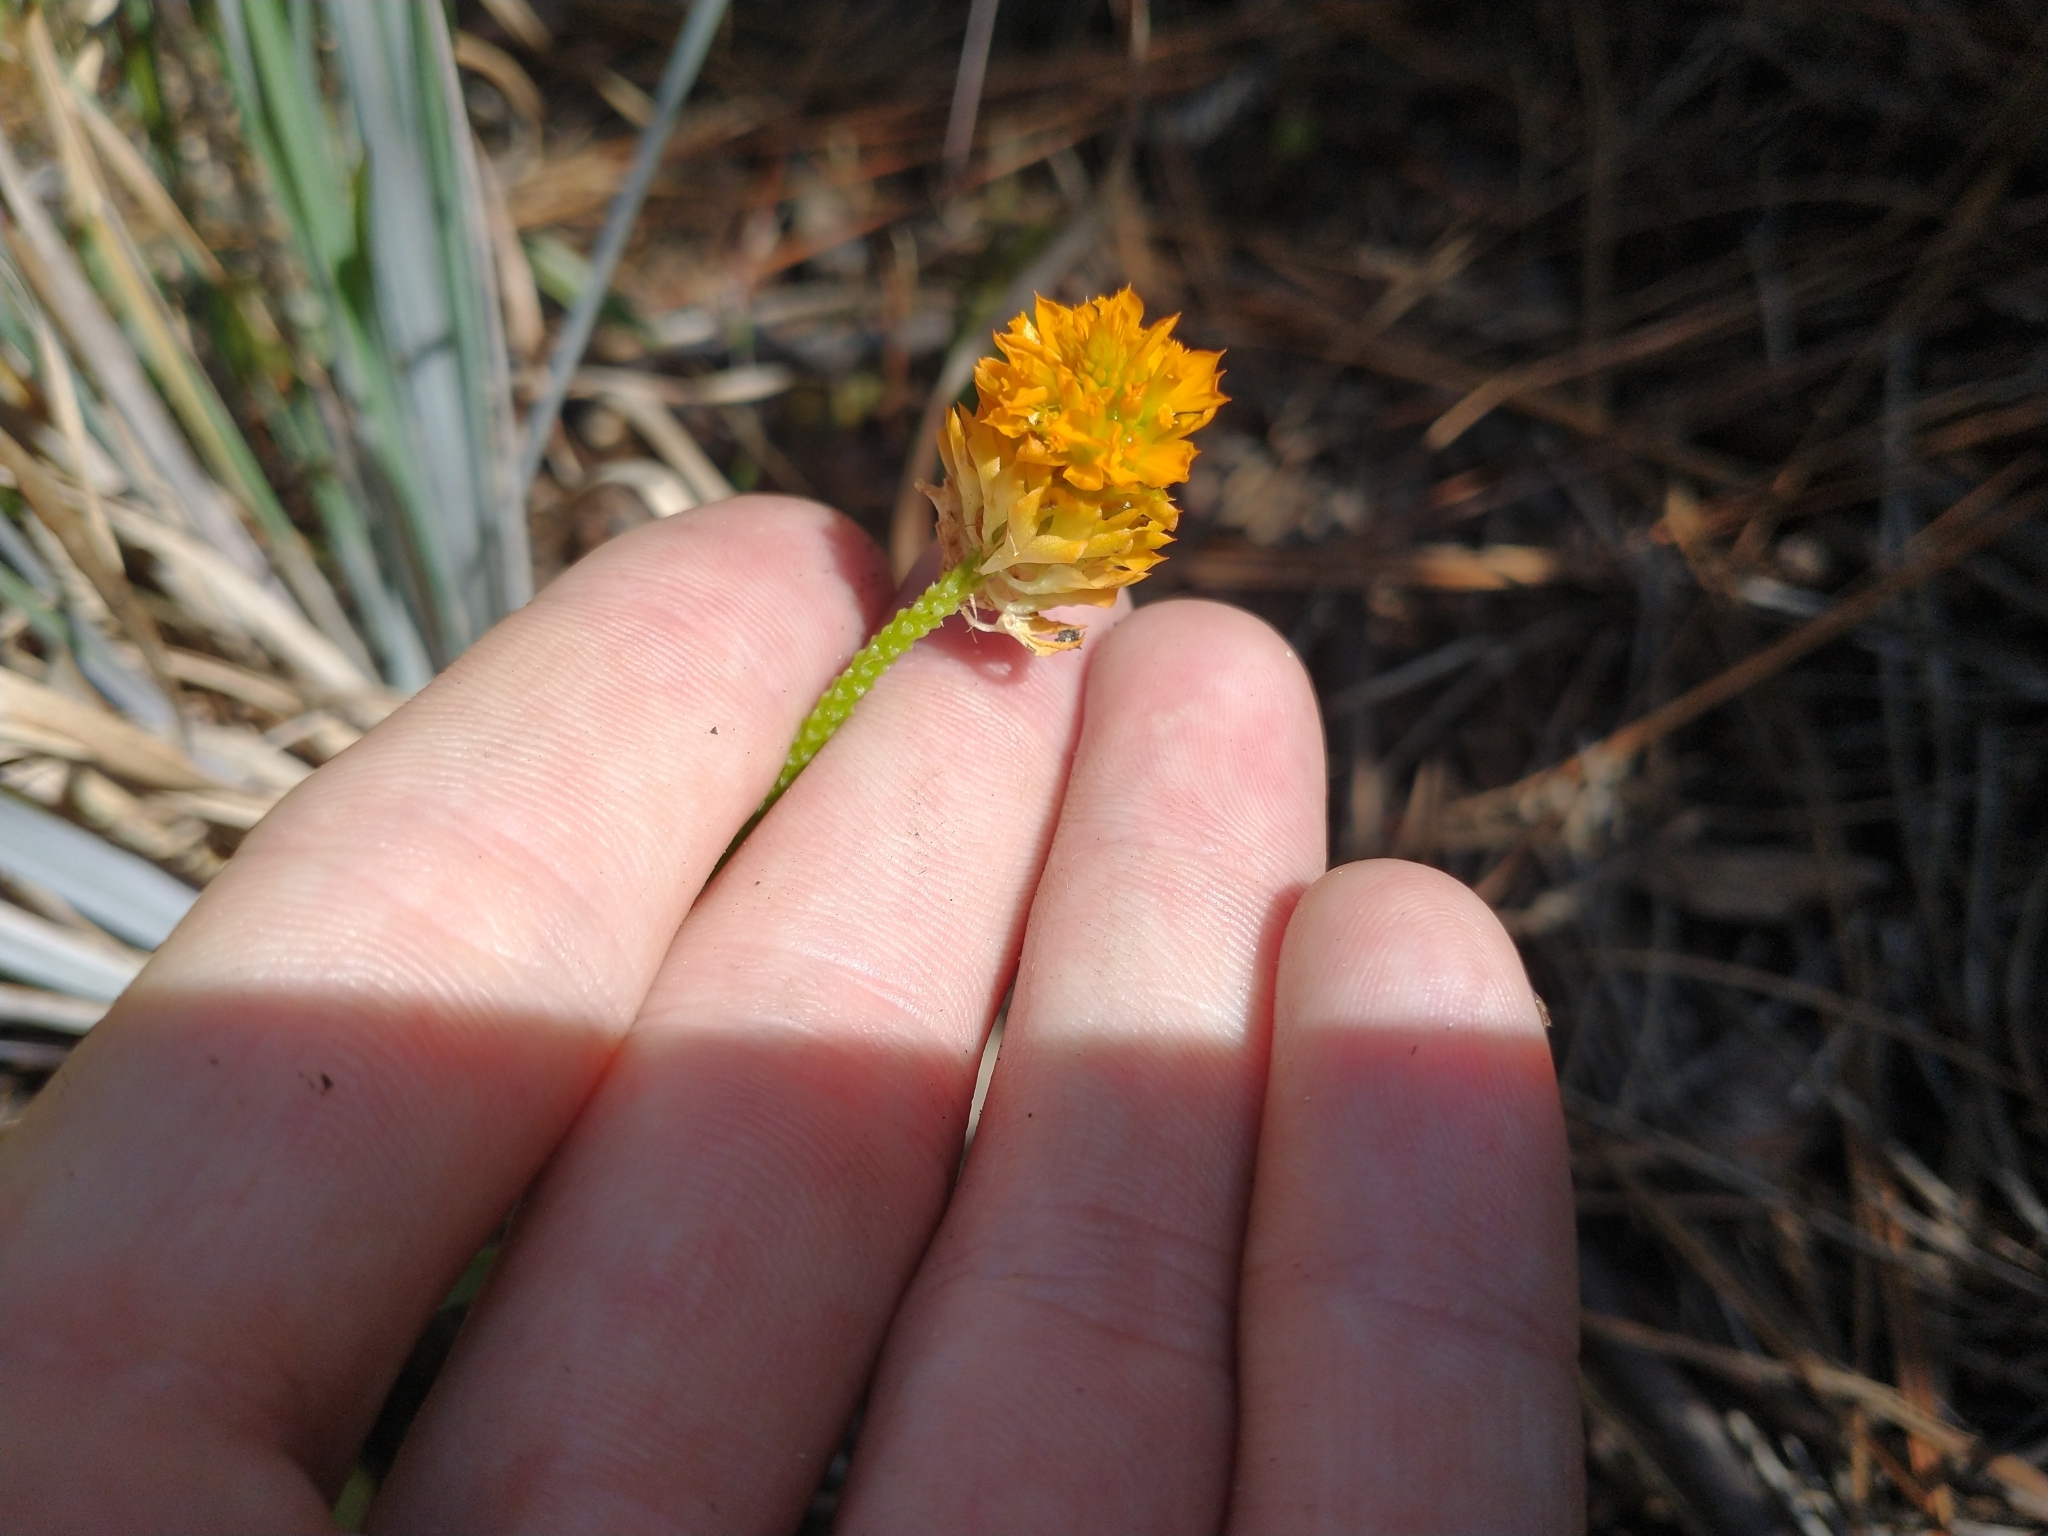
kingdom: Plantae
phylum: Tracheophyta
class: Magnoliopsida
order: Fabales
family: Polygalaceae
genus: Polygala
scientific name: Polygala lutea
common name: Orange milkwort
